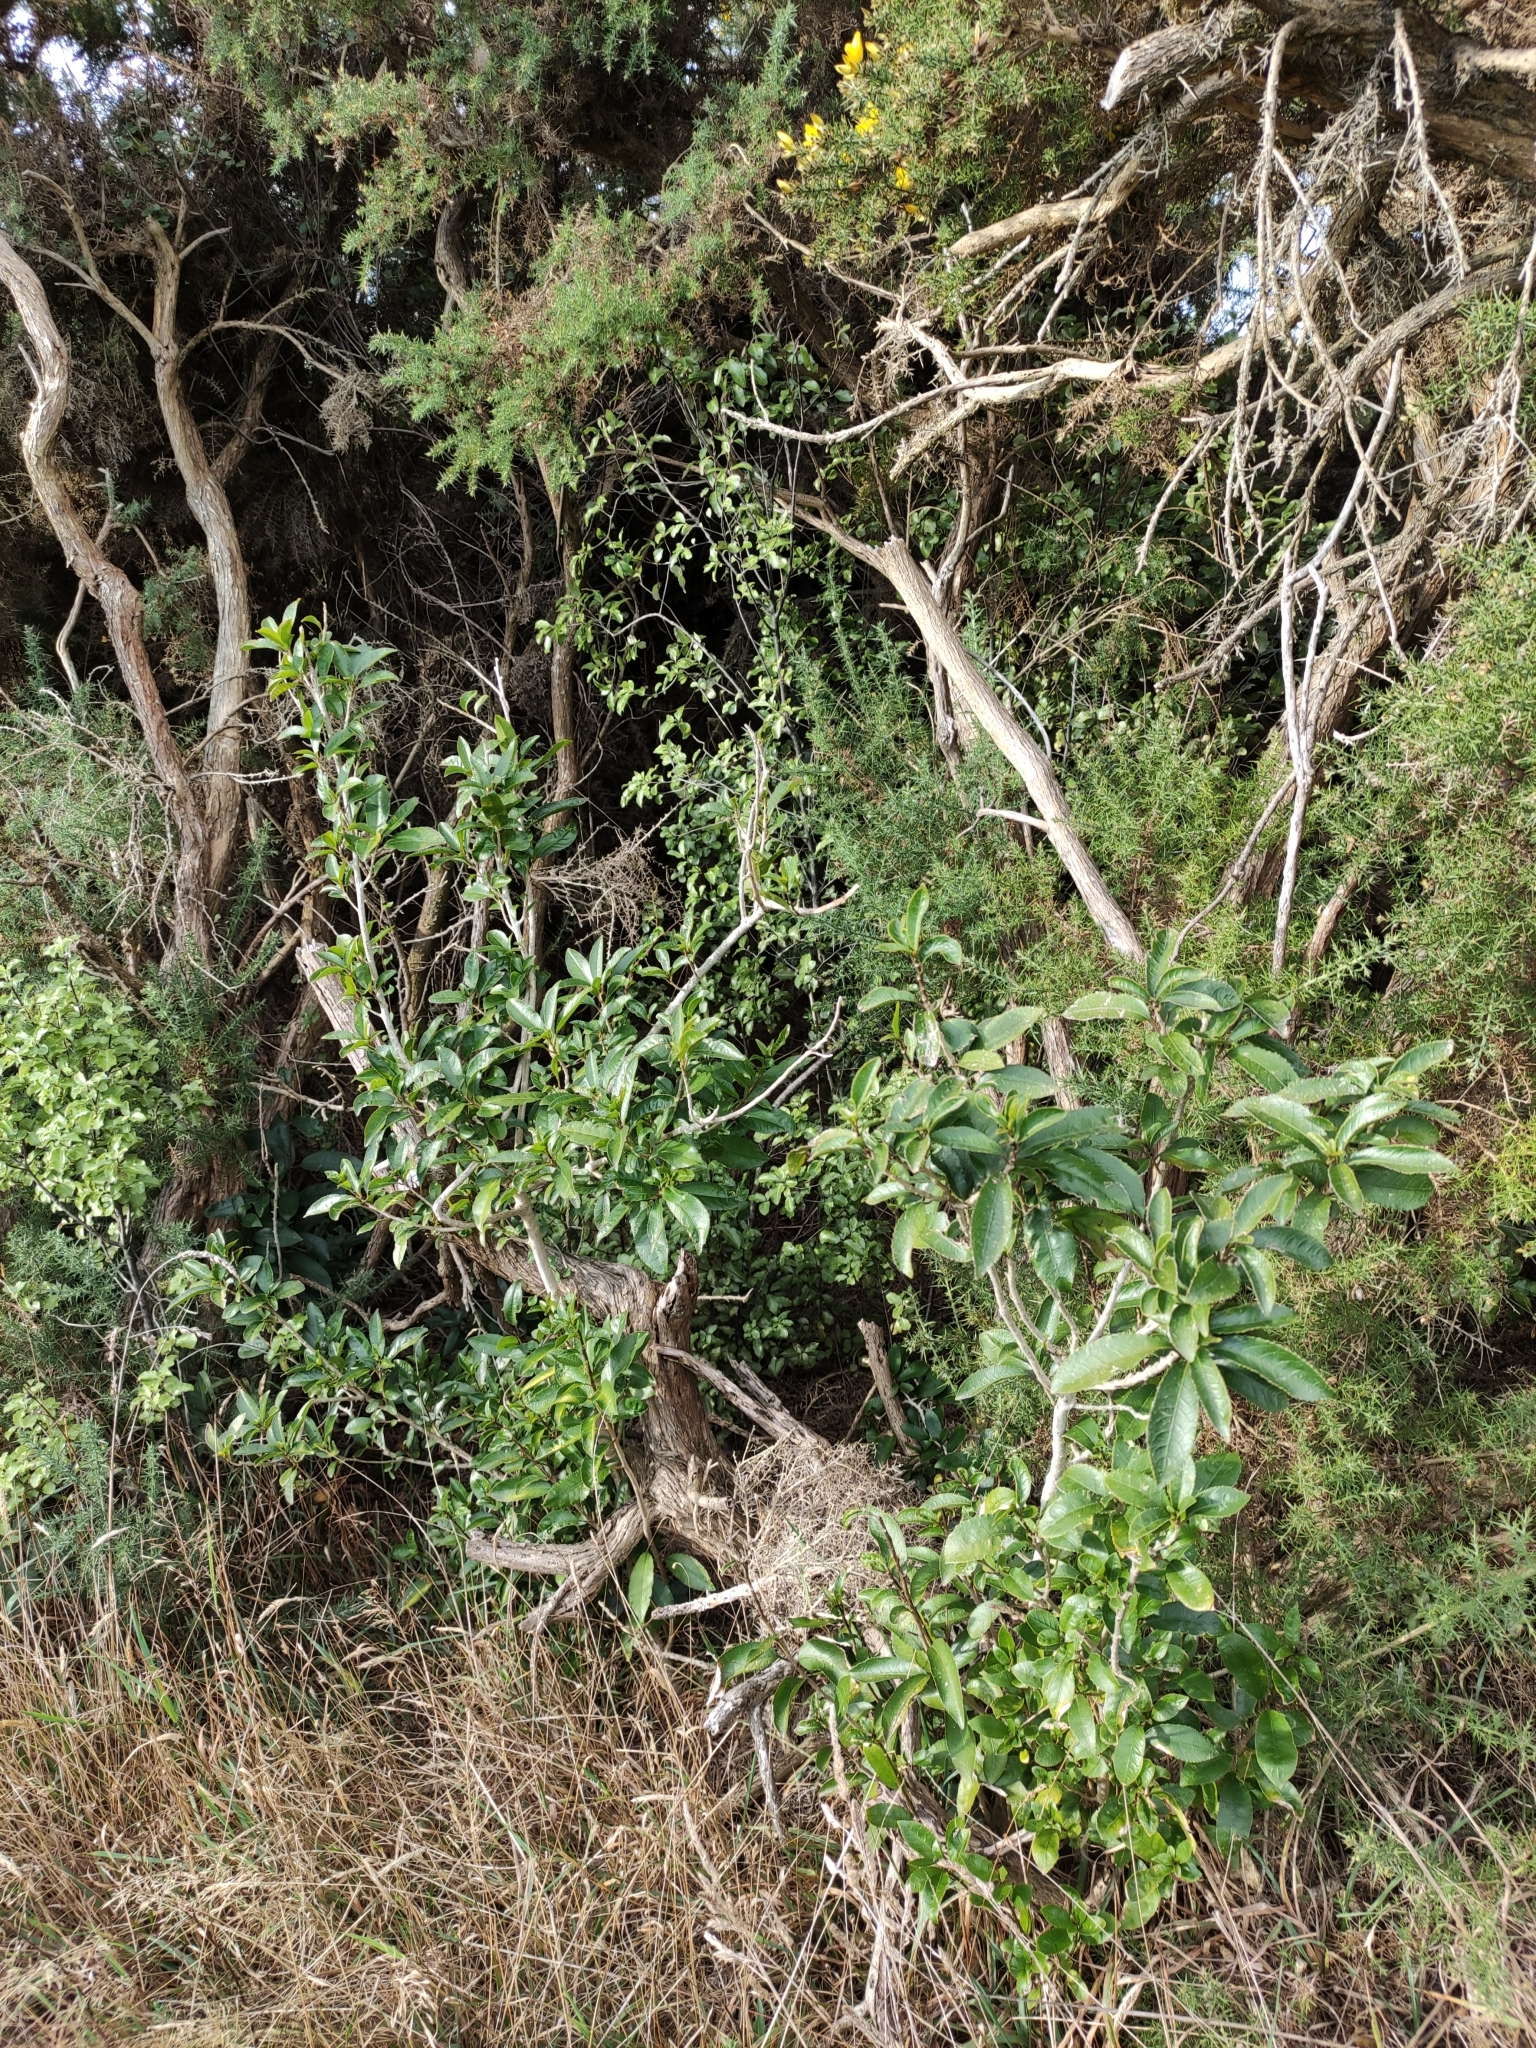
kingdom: Plantae
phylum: Tracheophyta
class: Magnoliopsida
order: Malpighiales
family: Violaceae
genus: Melicytus
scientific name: Melicytus ramiflorus
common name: Mahoe
